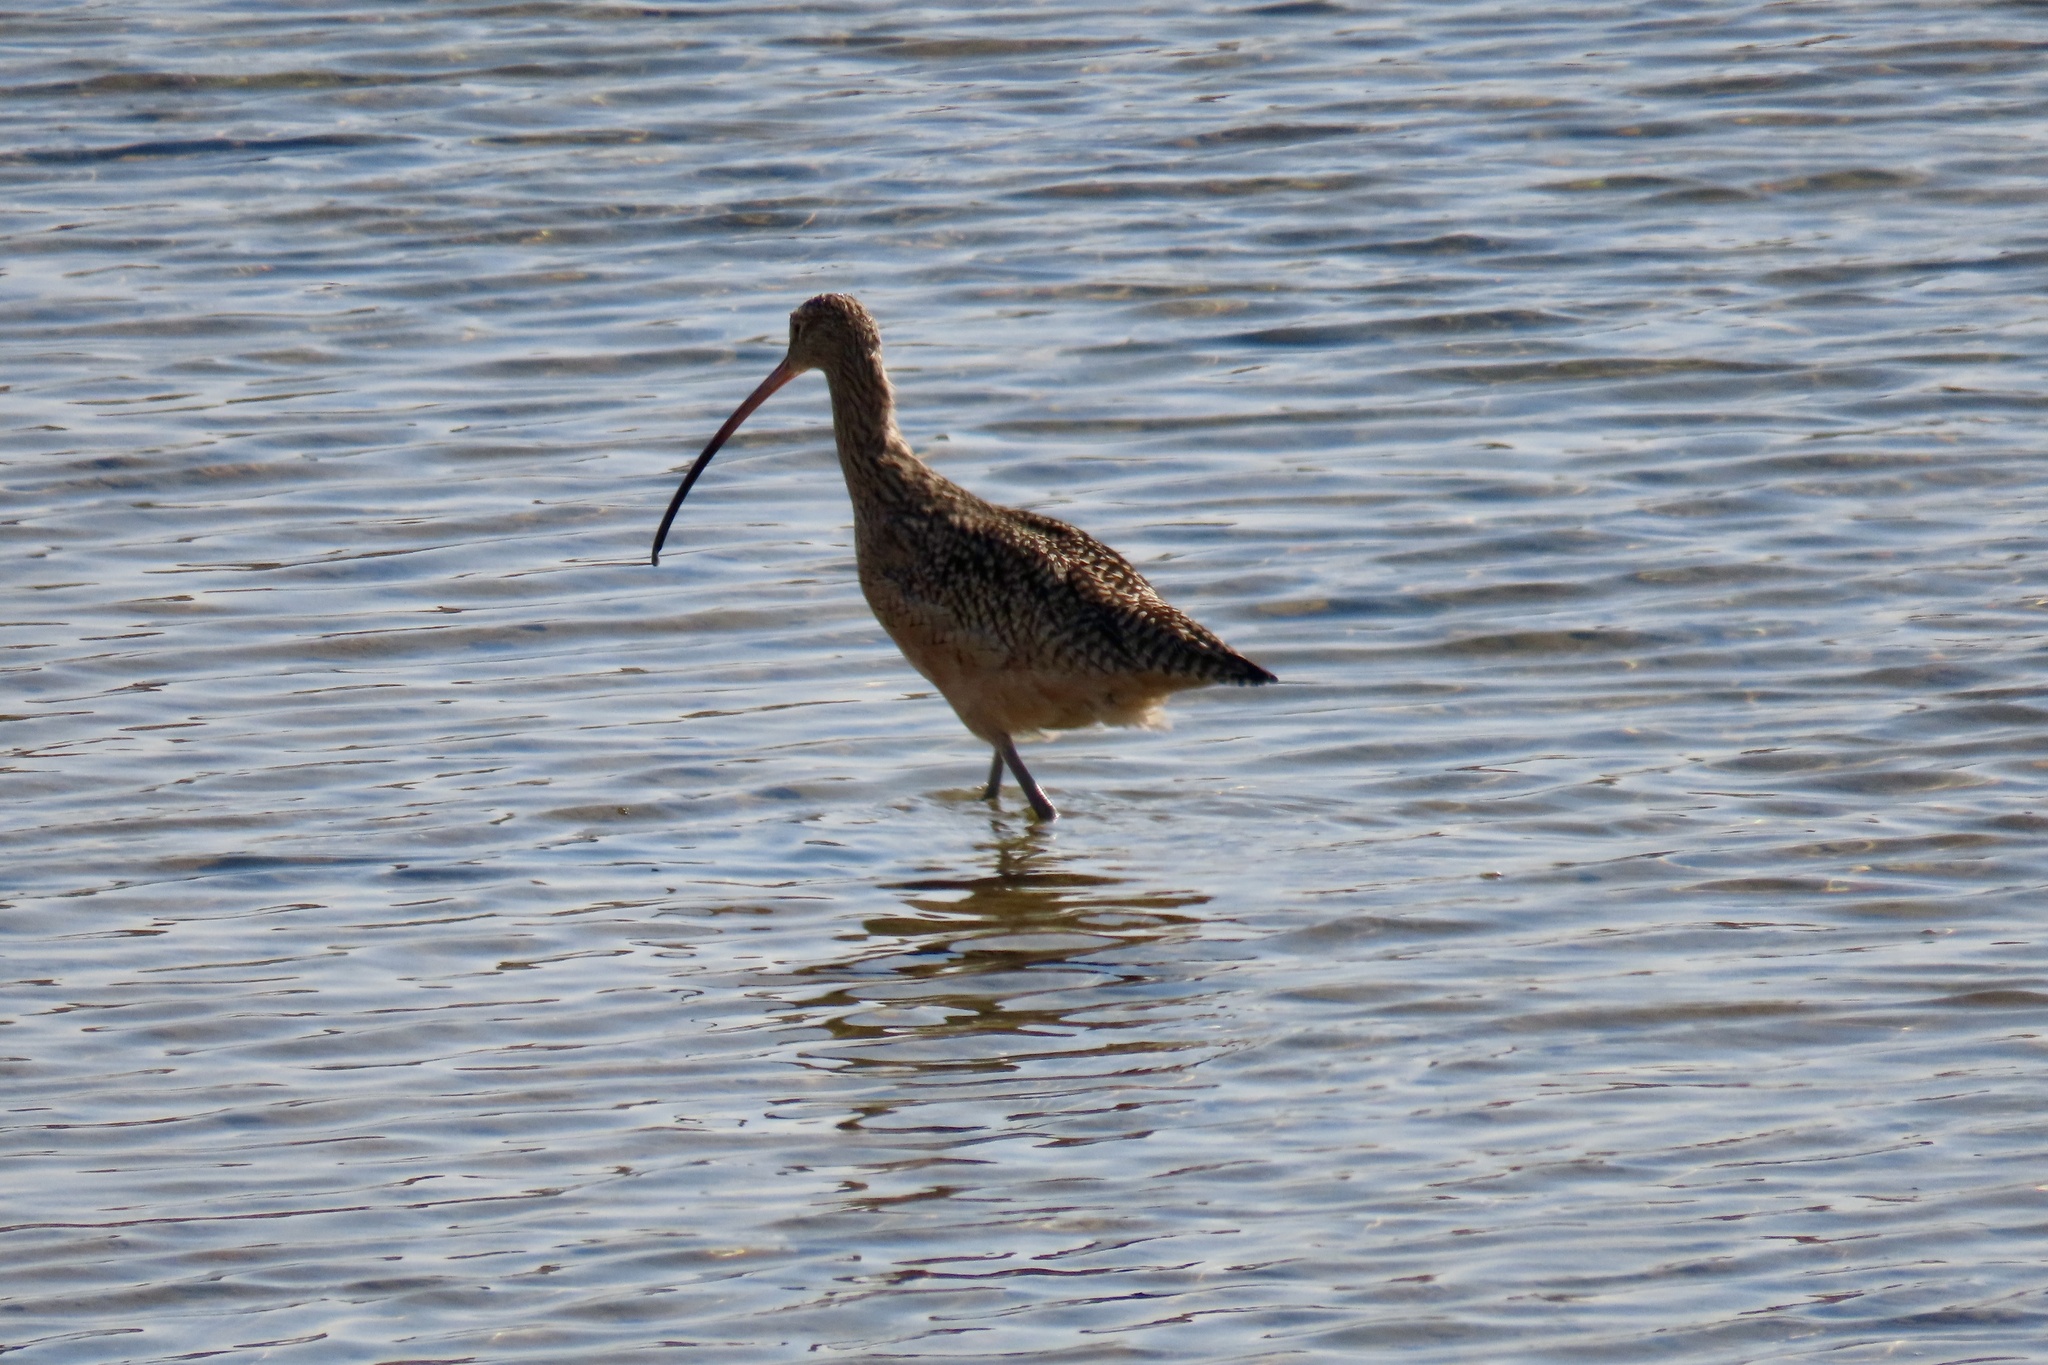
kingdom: Animalia
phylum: Chordata
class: Aves
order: Charadriiformes
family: Scolopacidae
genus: Numenius
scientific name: Numenius americanus
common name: Long-billed curlew
